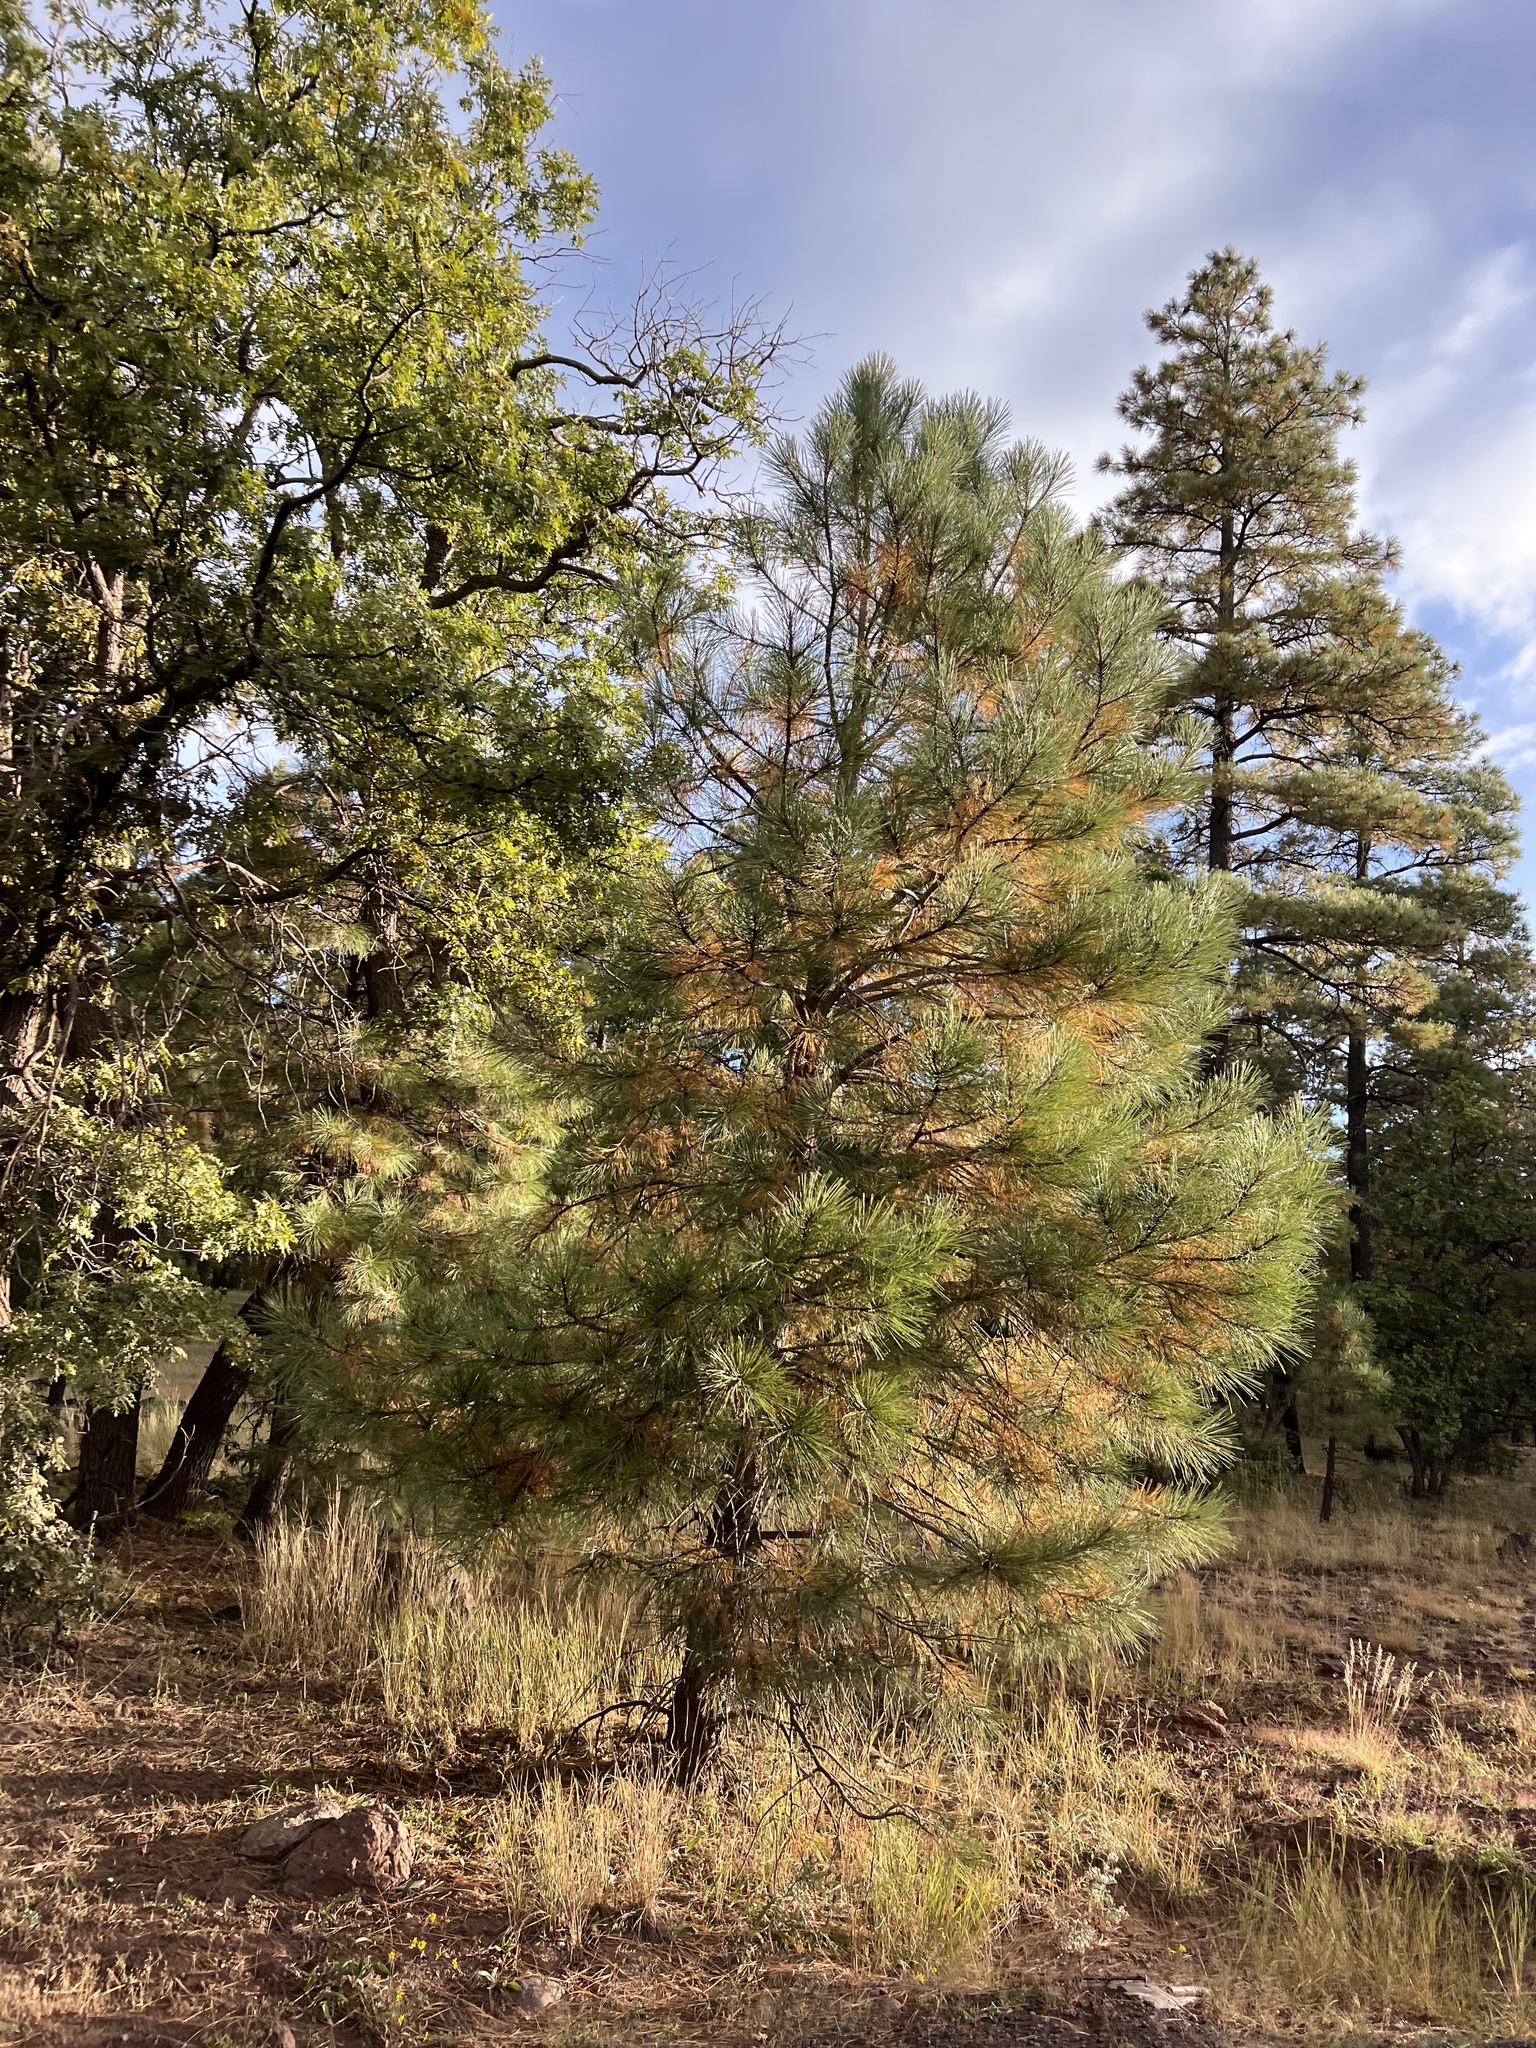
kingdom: Plantae
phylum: Tracheophyta
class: Pinopsida
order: Pinales
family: Pinaceae
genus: Pinus
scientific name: Pinus ponderosa
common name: Western yellow-pine
